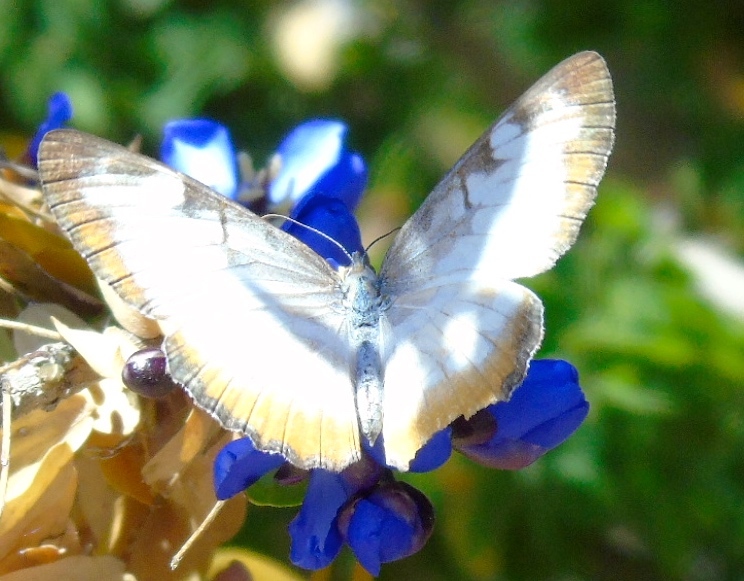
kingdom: Animalia
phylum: Arthropoda
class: Insecta
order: Lepidoptera
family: Nymphalidae
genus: Mestra
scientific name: Mestra amymone
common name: Common mestra
